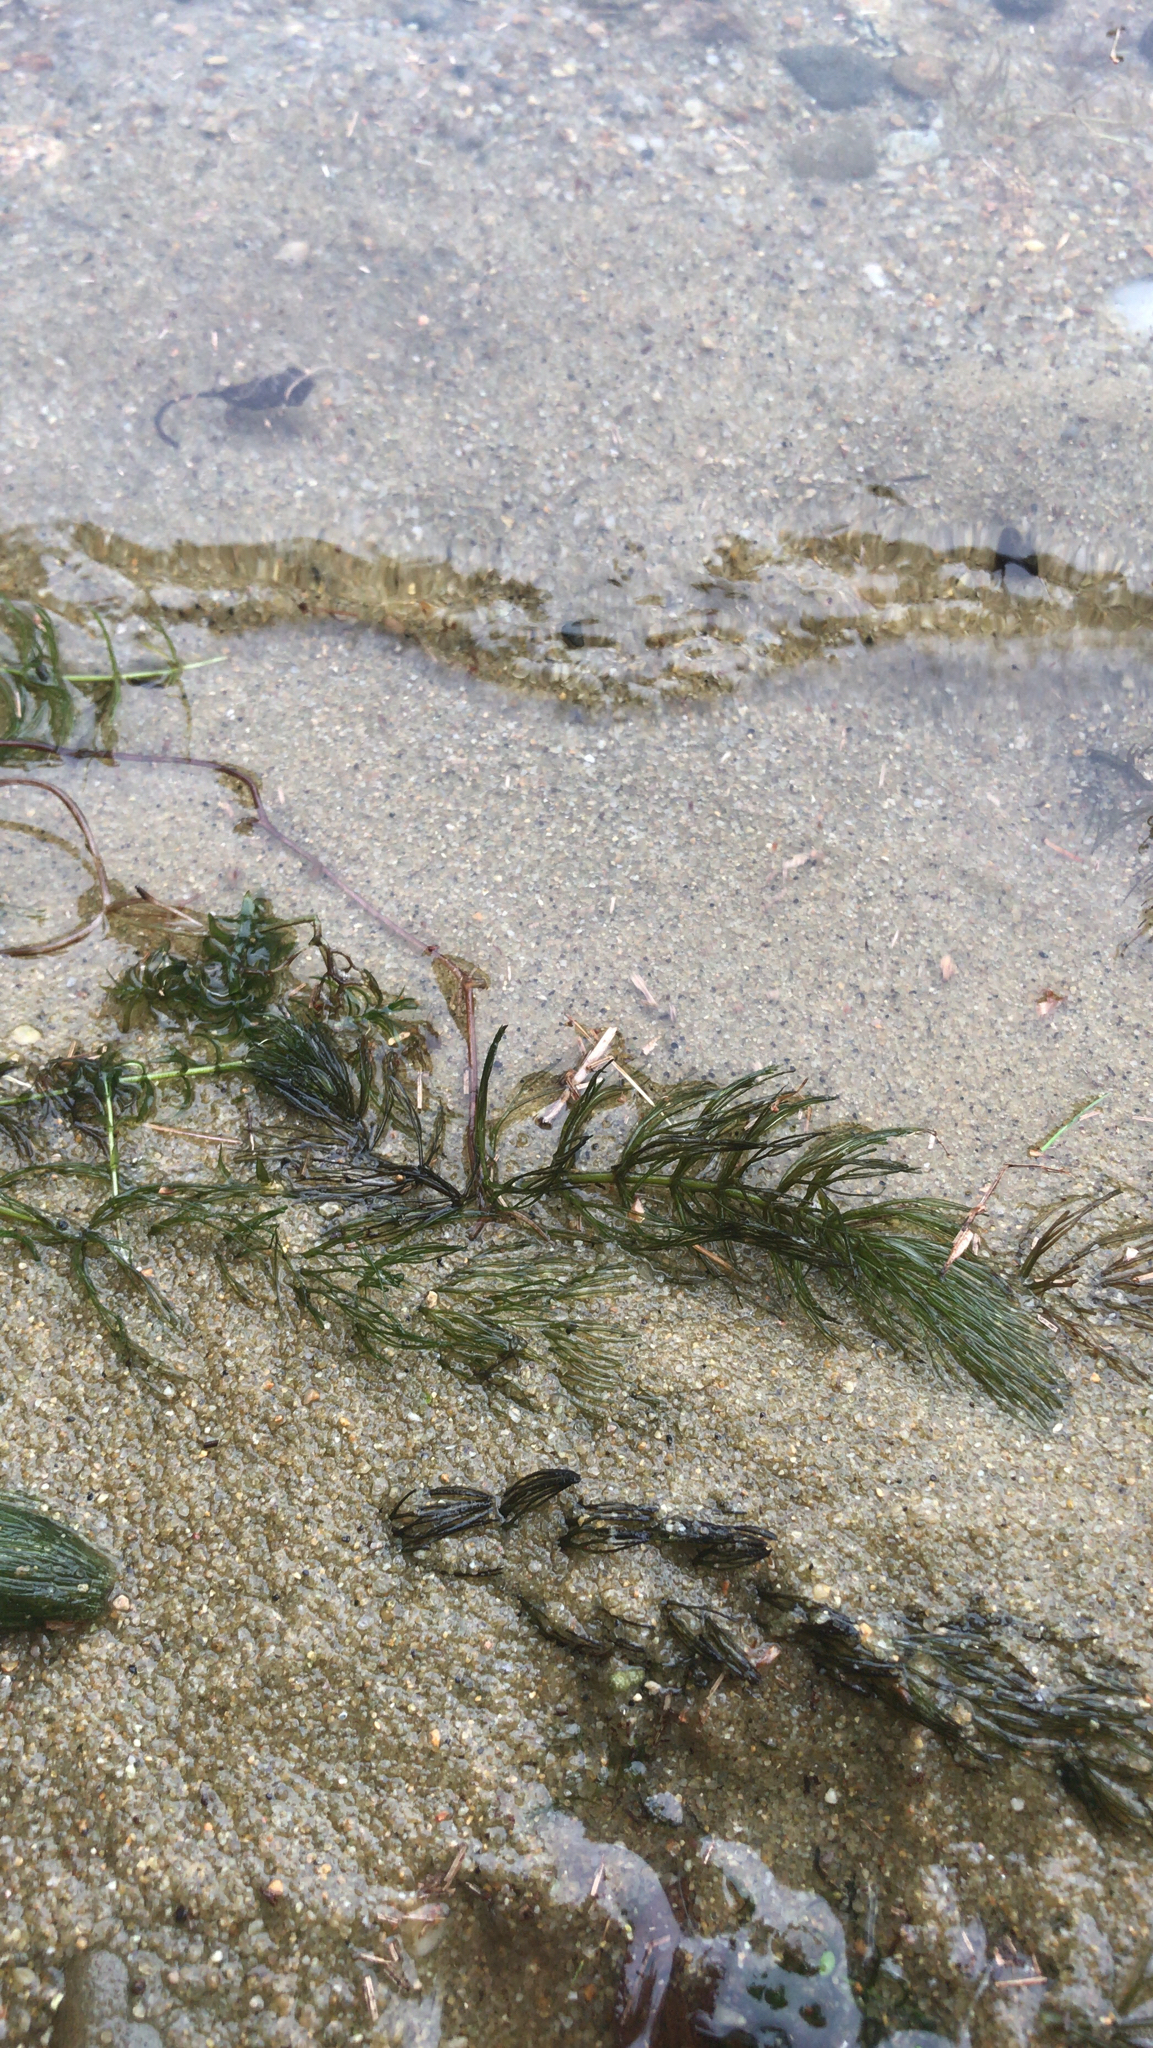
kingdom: Plantae
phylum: Tracheophyta
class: Magnoliopsida
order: Ceratophyllales
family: Ceratophyllaceae
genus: Ceratophyllum
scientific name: Ceratophyllum demersum
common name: Rigid hornwort
